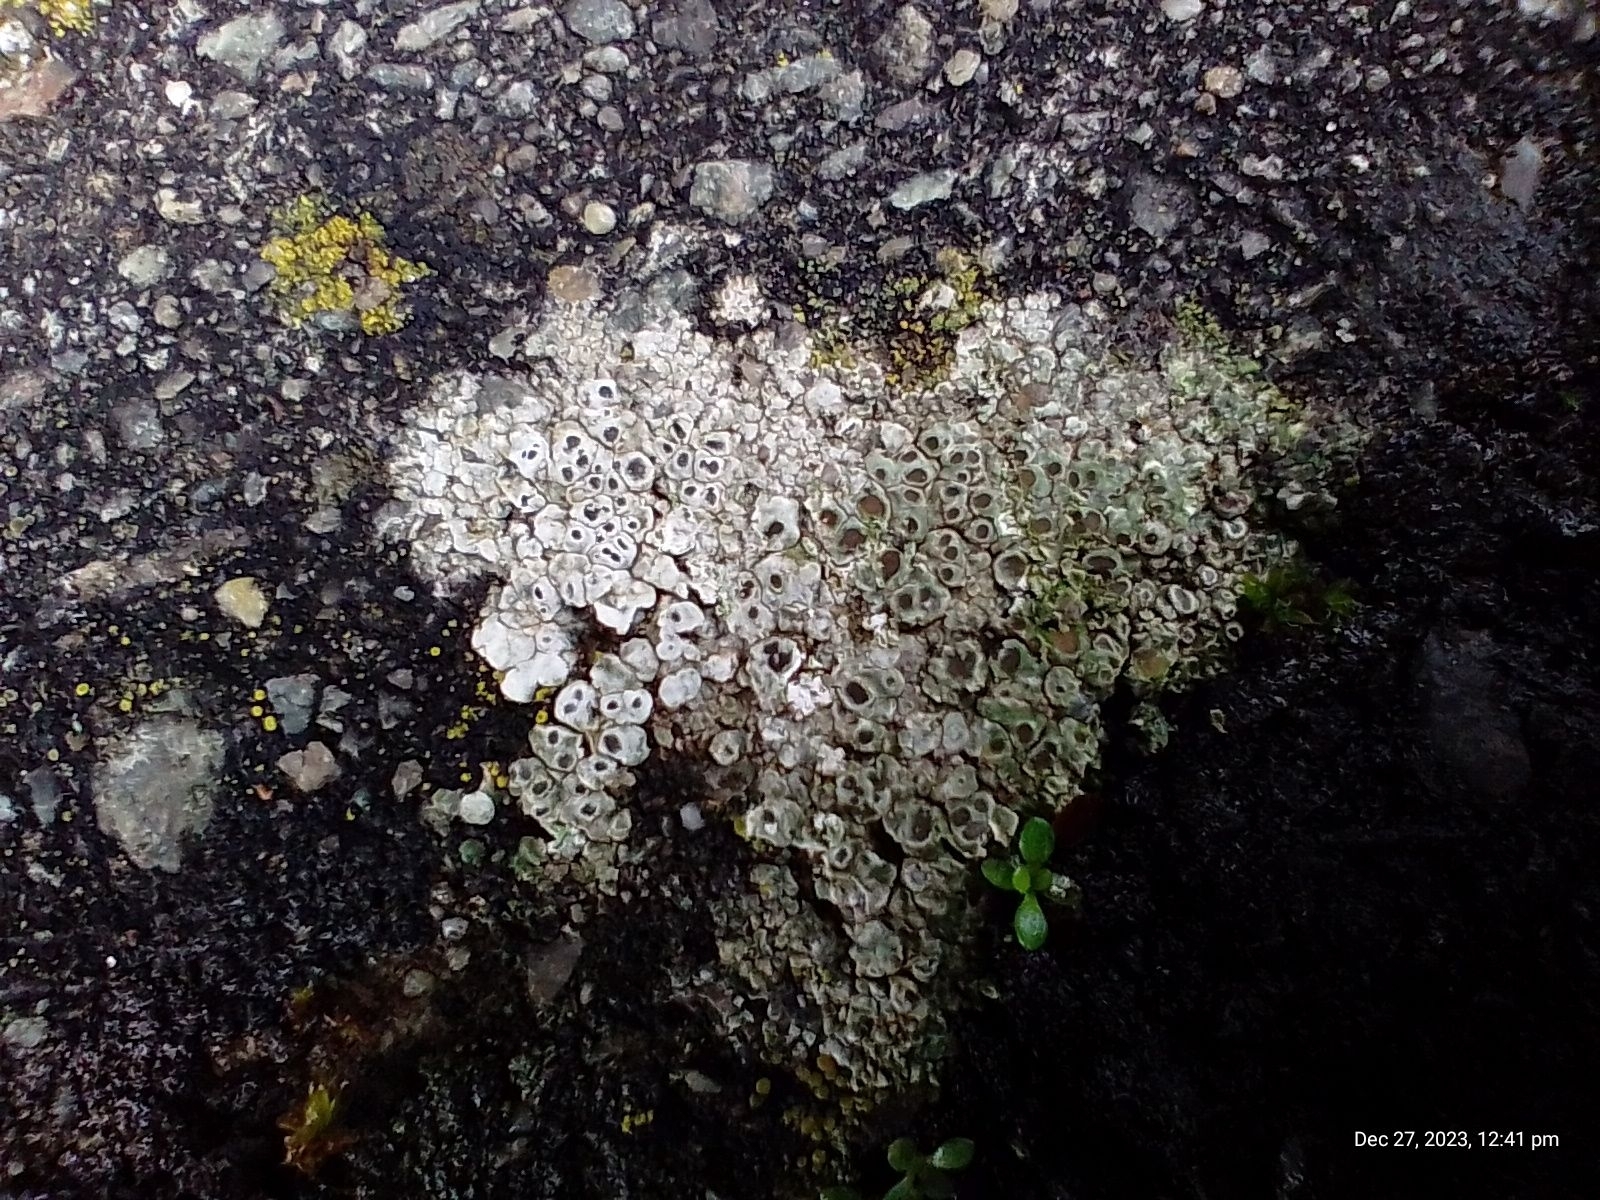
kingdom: Fungi
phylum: Ascomycota
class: Lecanoromycetes
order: Pertusariales
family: Megasporaceae
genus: Circinaria
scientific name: Circinaria contorta
